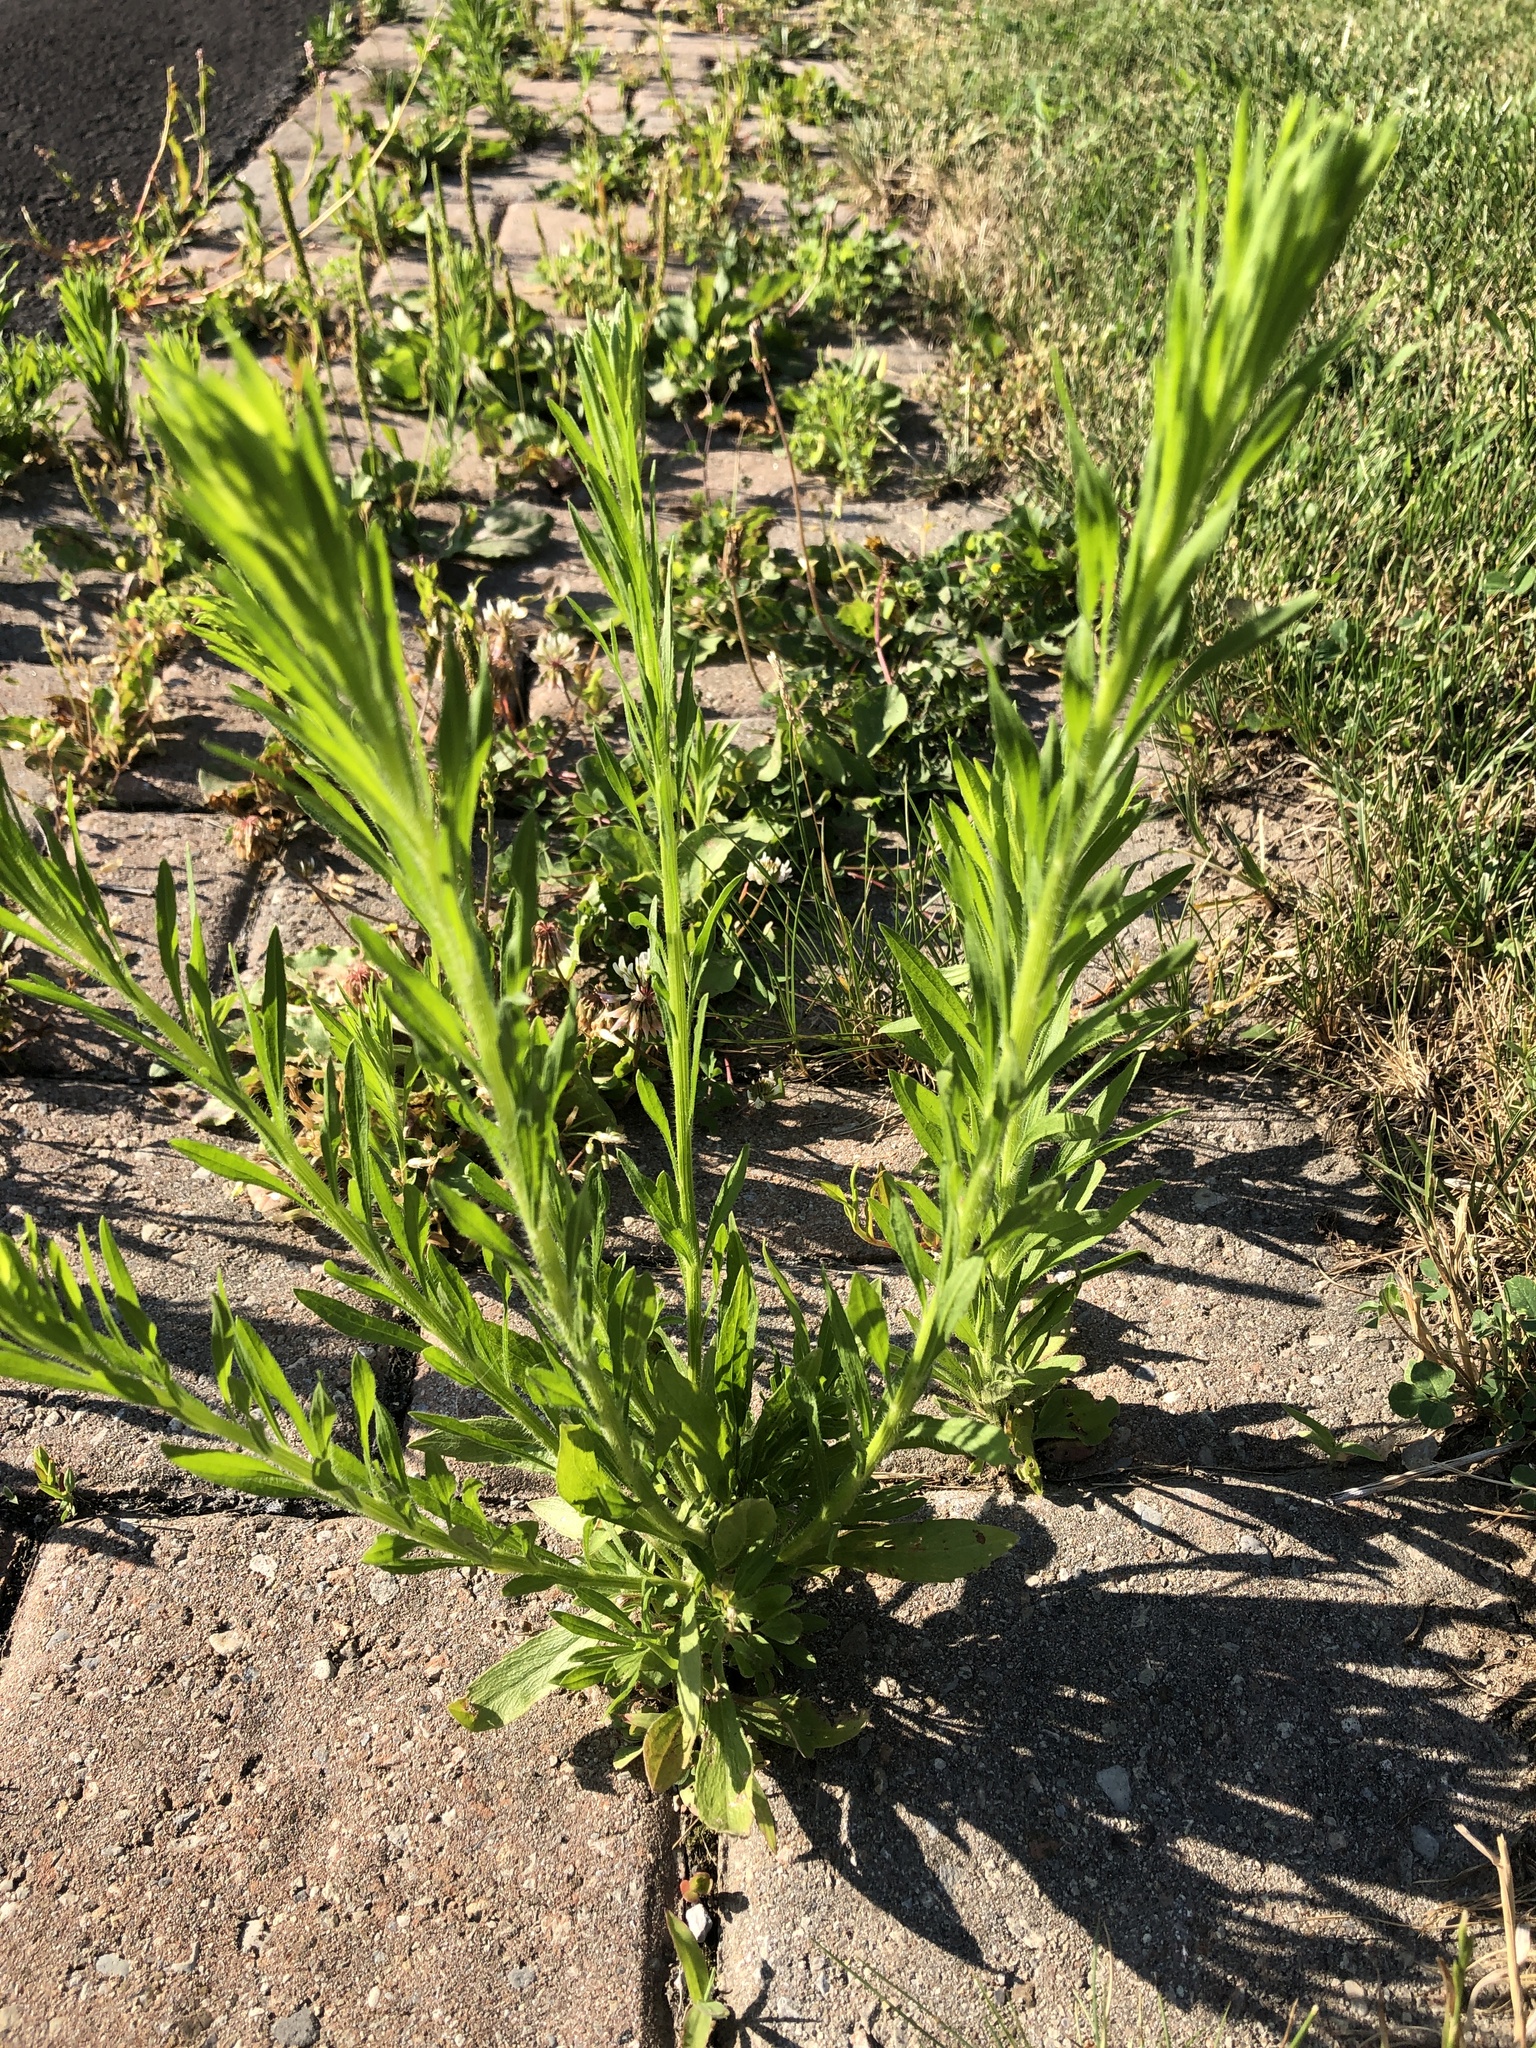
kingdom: Plantae
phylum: Tracheophyta
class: Magnoliopsida
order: Asterales
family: Asteraceae
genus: Erigeron
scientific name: Erigeron canadensis
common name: Canadian fleabane
